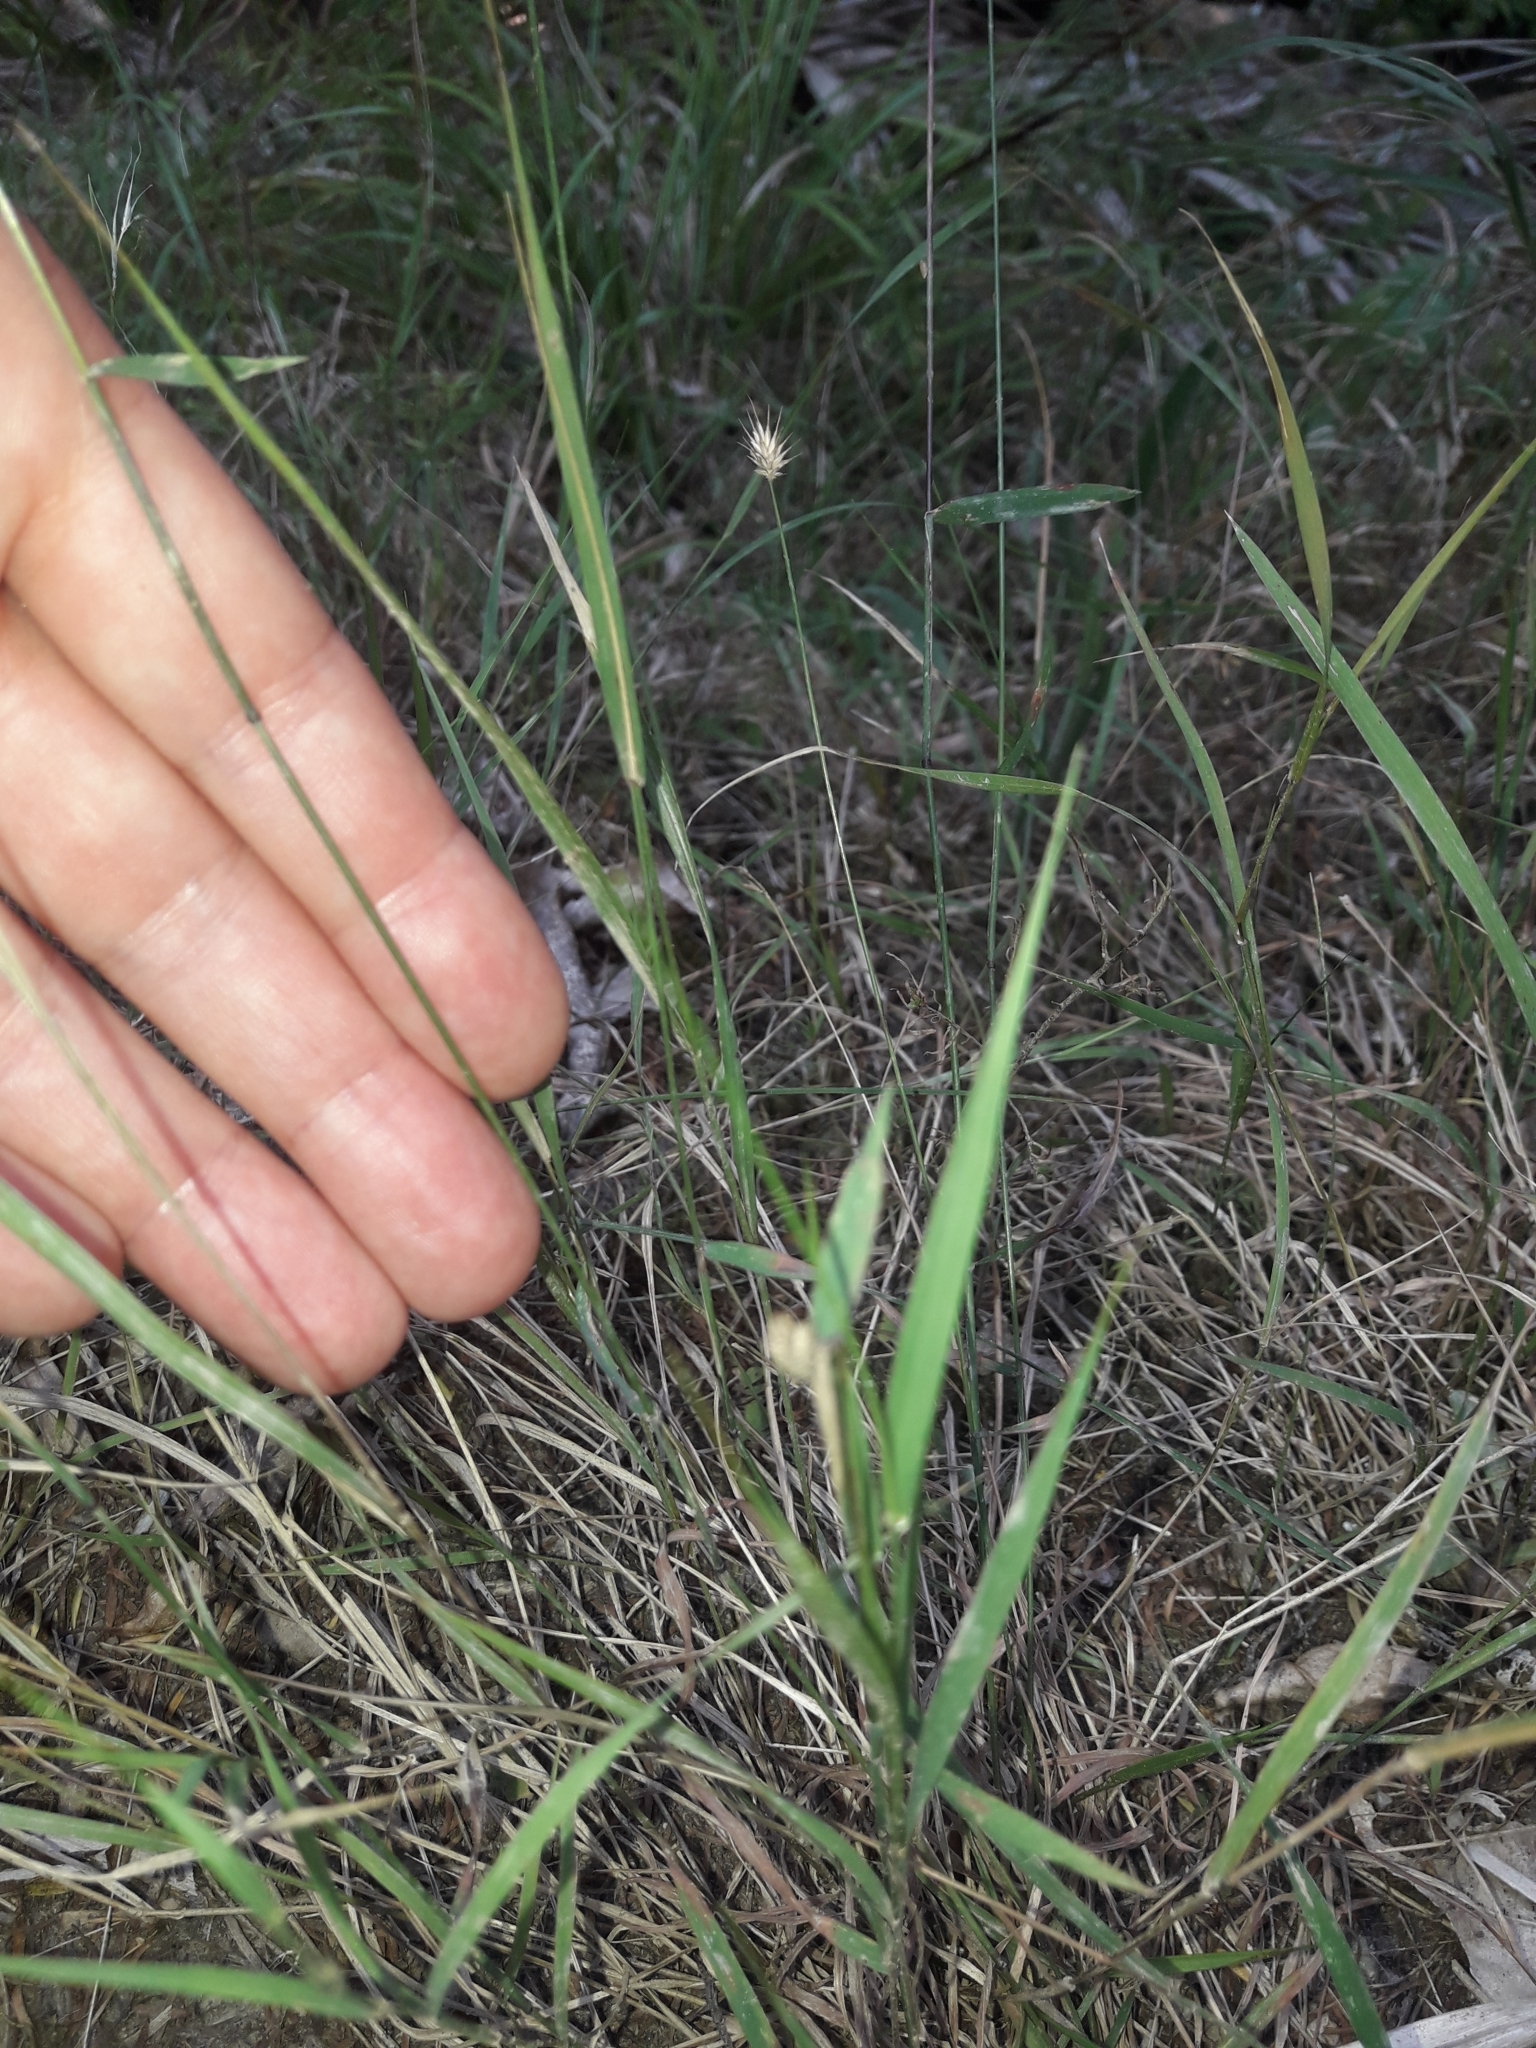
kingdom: Plantae
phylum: Tracheophyta
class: Liliopsida
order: Poales
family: Poaceae
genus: Echinopogon
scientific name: Echinopogon ovatus
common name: Hedgehog-grass
